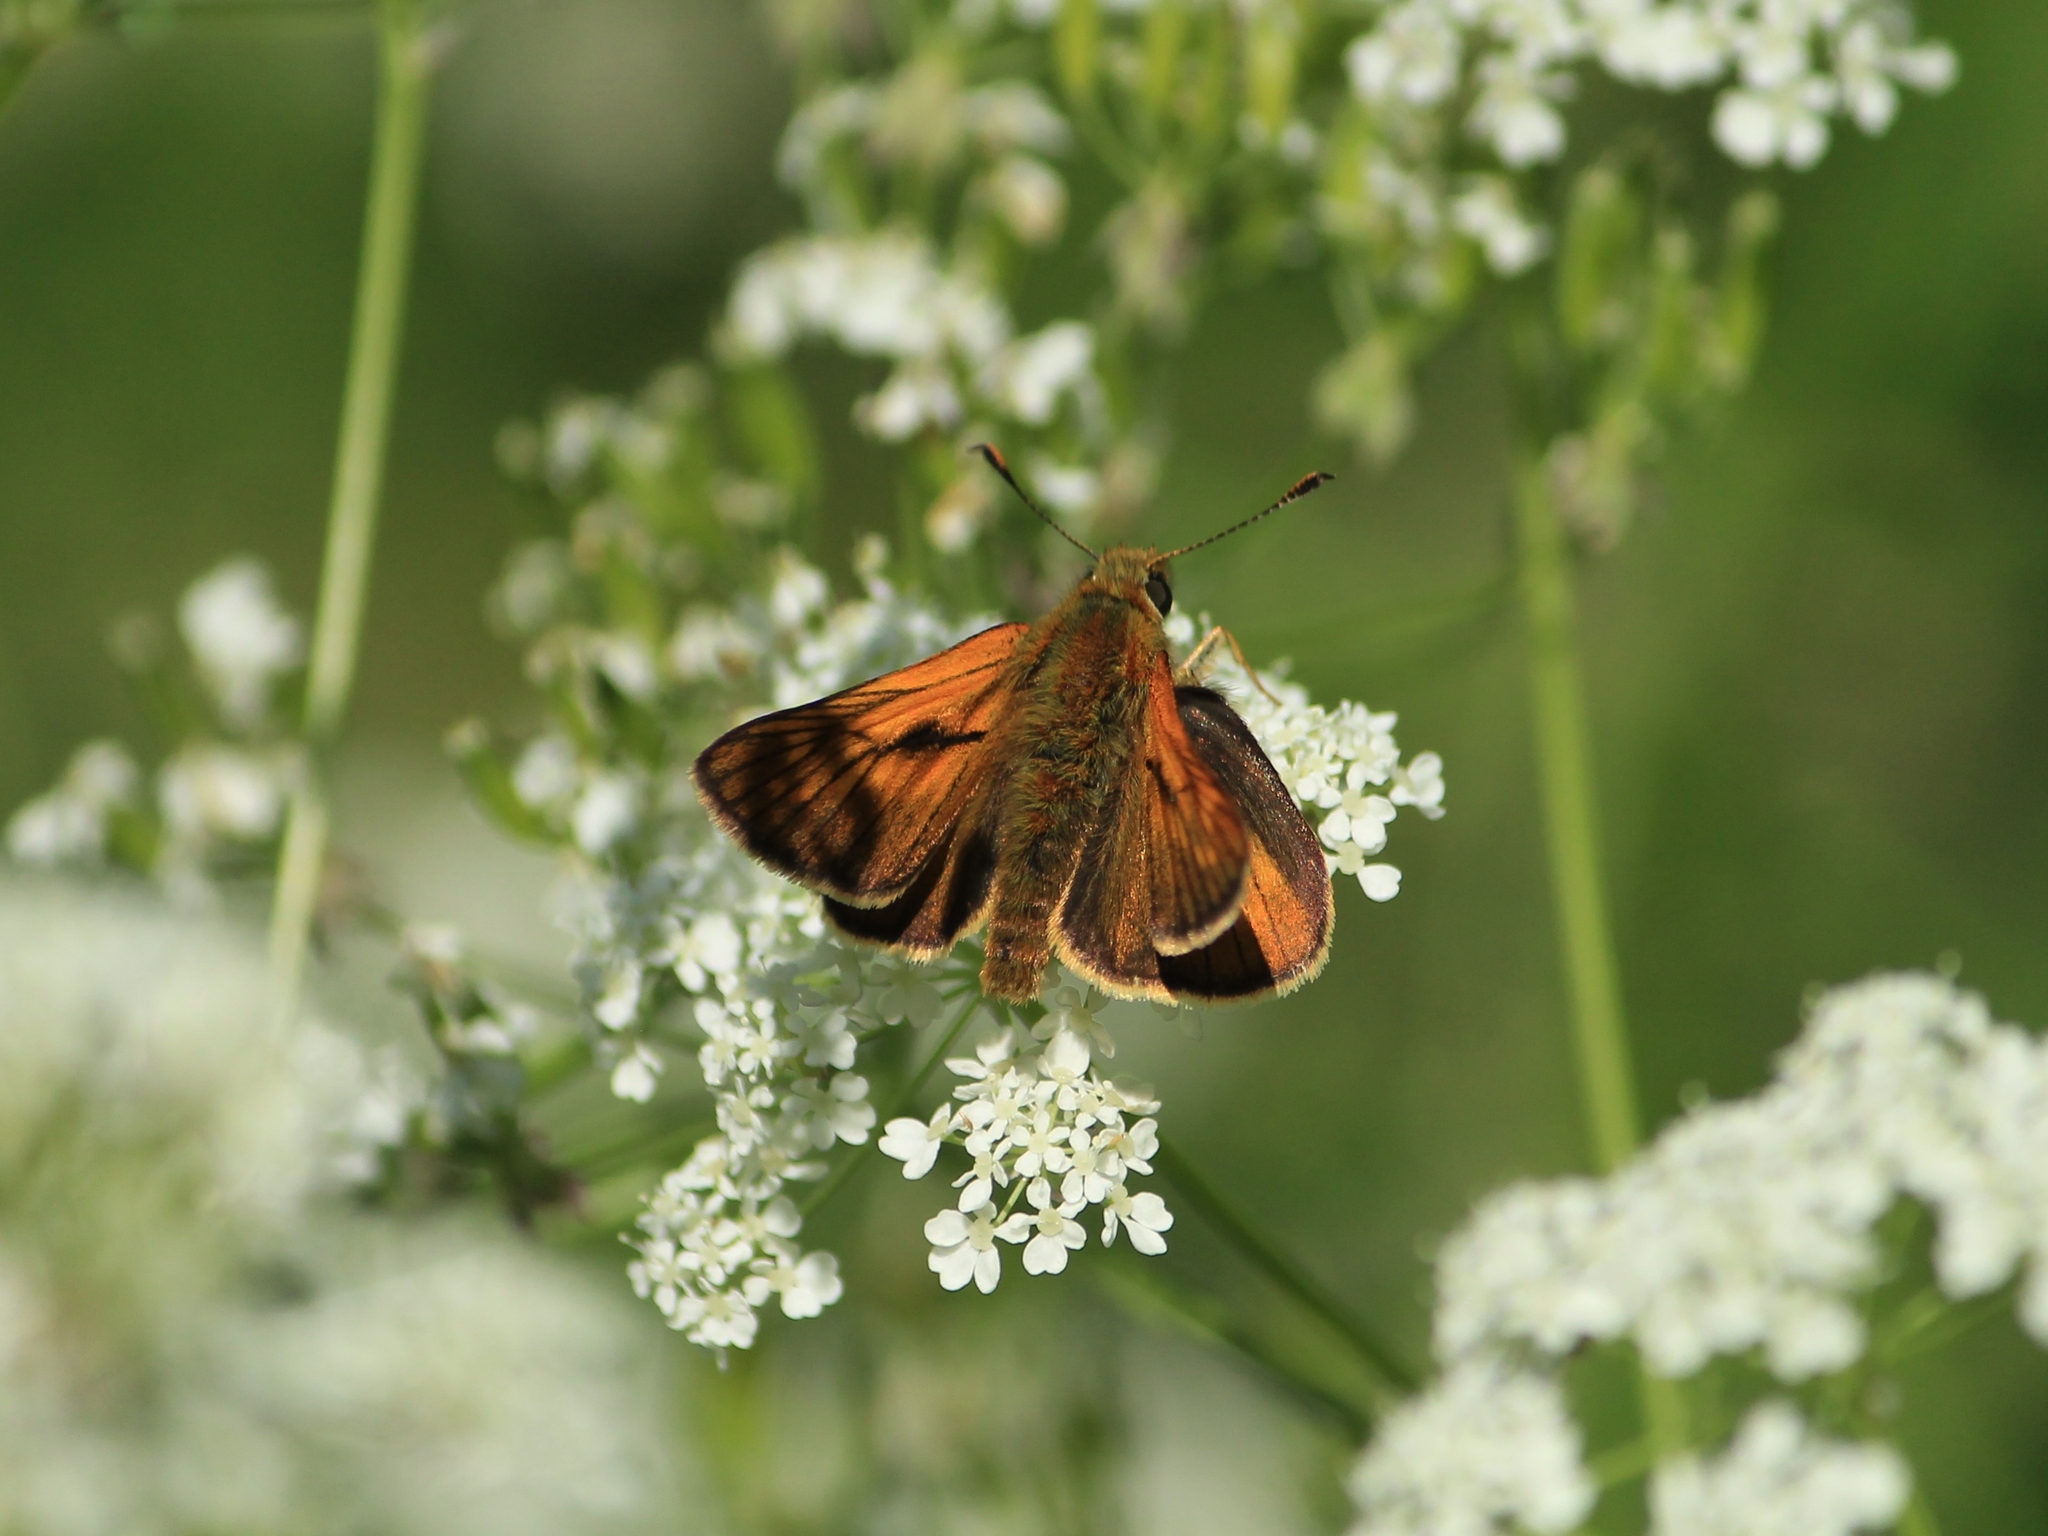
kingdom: Animalia
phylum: Arthropoda
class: Insecta
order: Lepidoptera
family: Hesperiidae
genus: Ochlodes
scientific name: Ochlodes venata
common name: Large skipper
